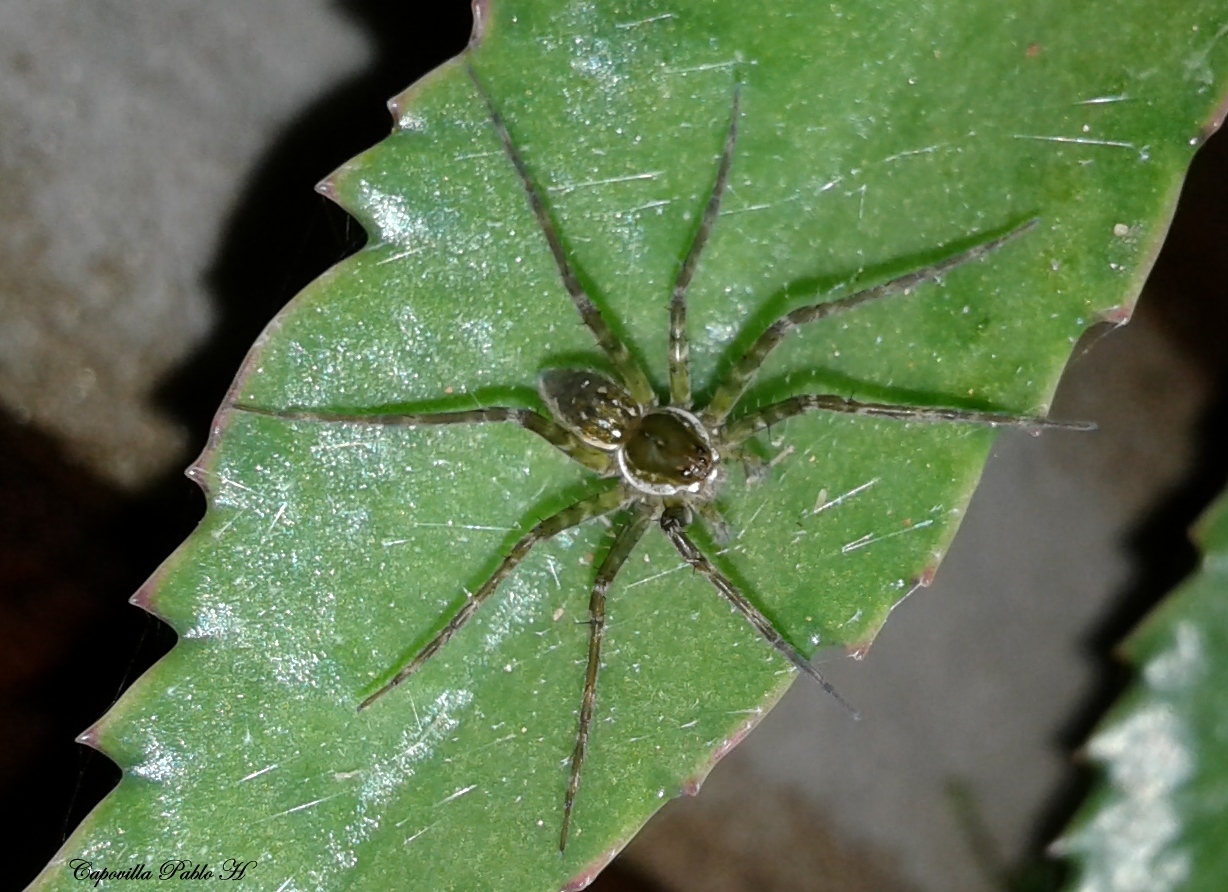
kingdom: Animalia
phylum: Arthropoda
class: Arachnida
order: Araneae
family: Pisauridae
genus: Thaumasia
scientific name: Thaumasia velox
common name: Nursery web spiders
